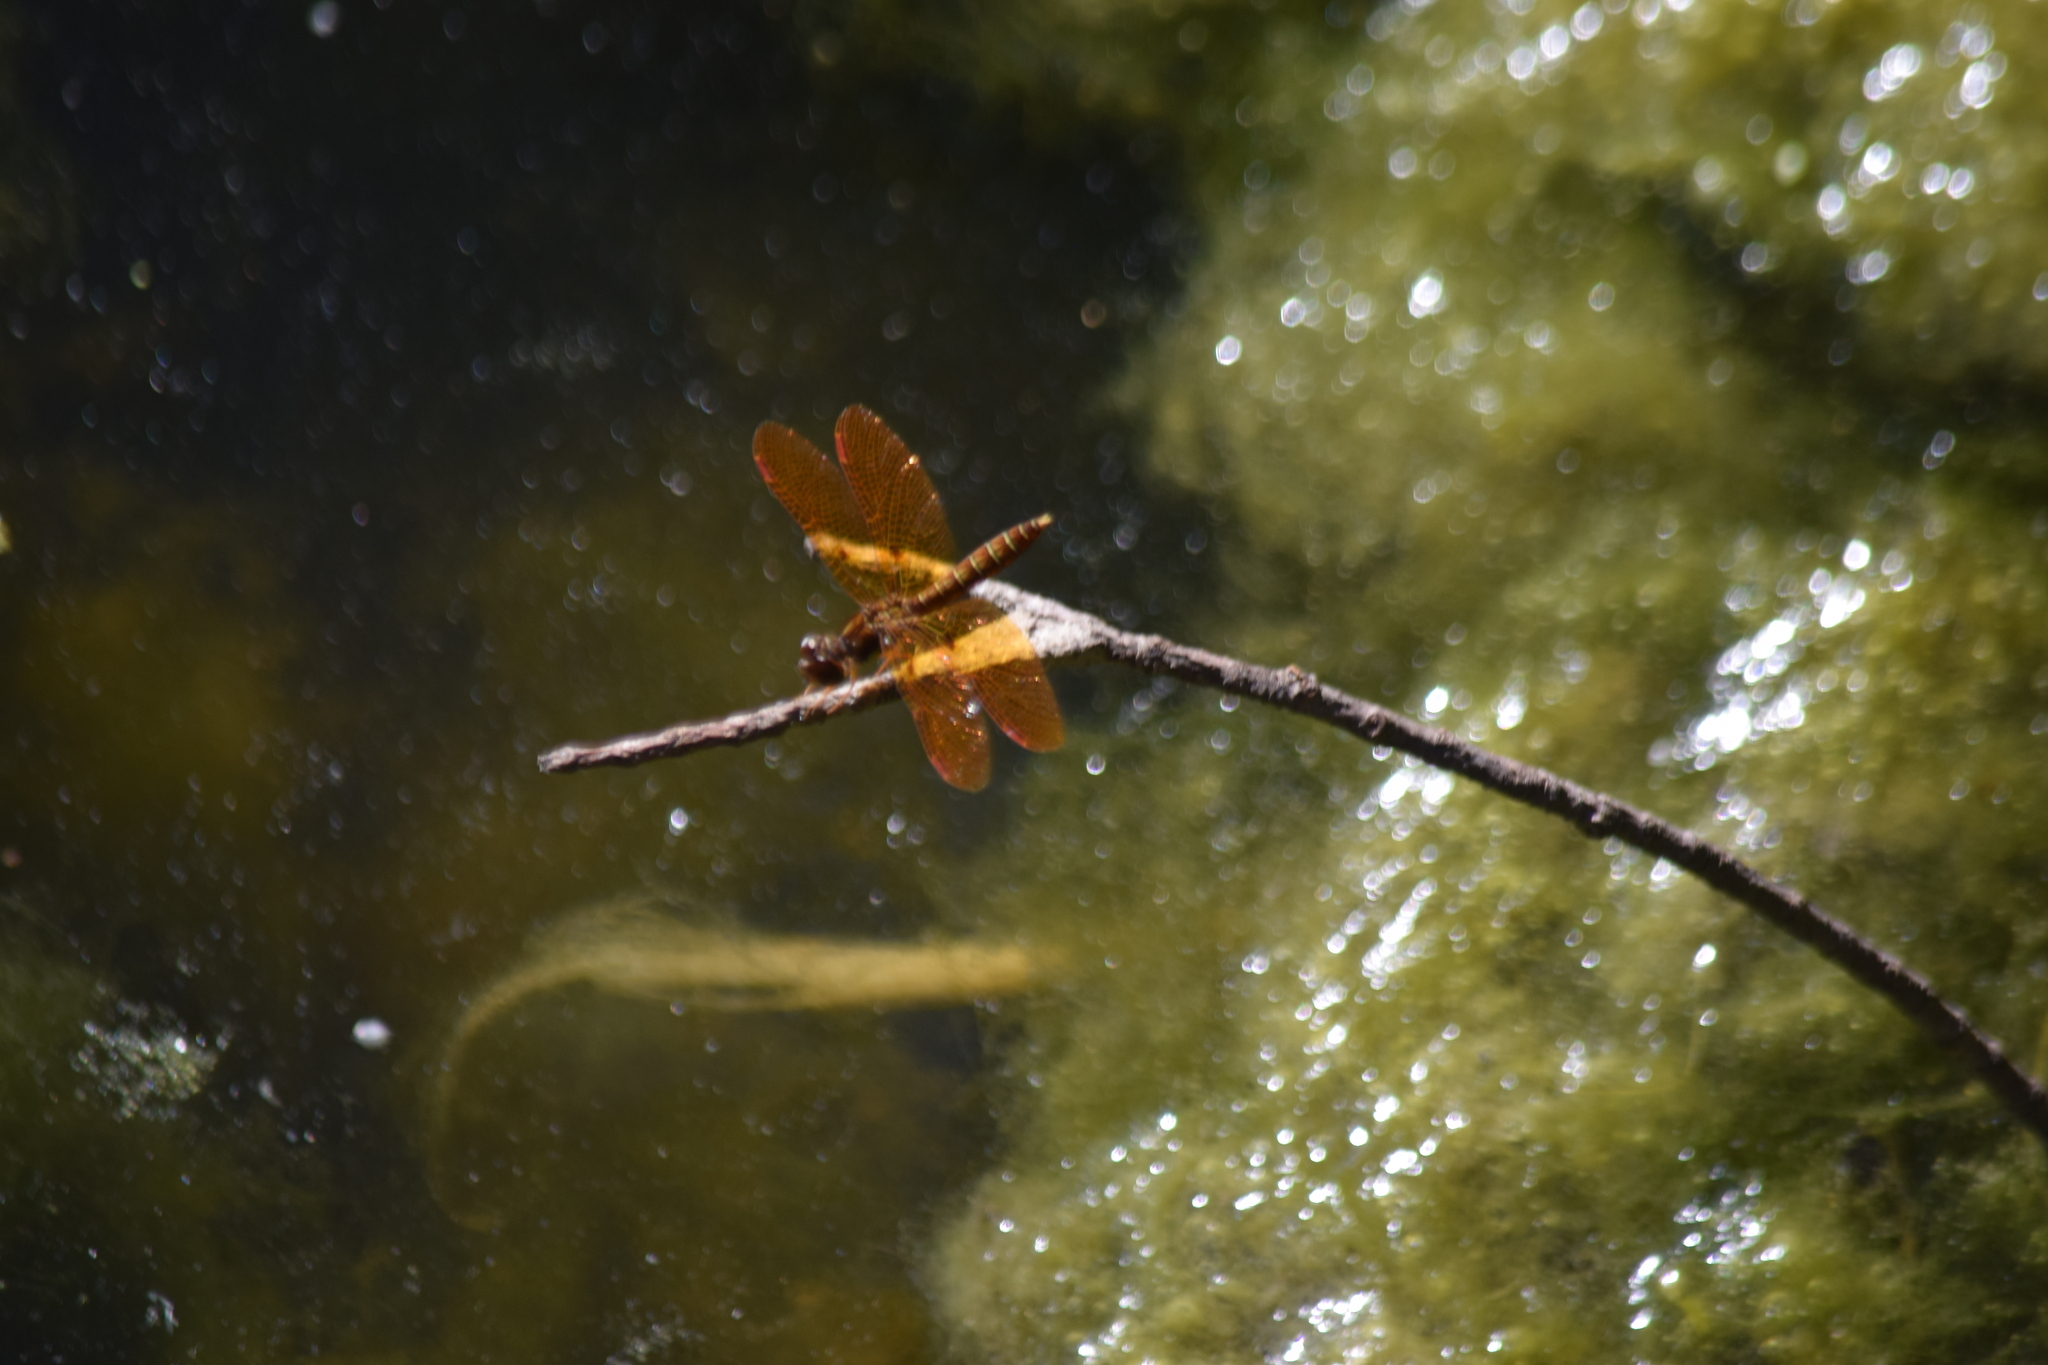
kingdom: Animalia
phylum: Arthropoda
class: Insecta
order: Odonata
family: Libellulidae
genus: Perithemis
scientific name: Perithemis tenera
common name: Eastern amberwing
